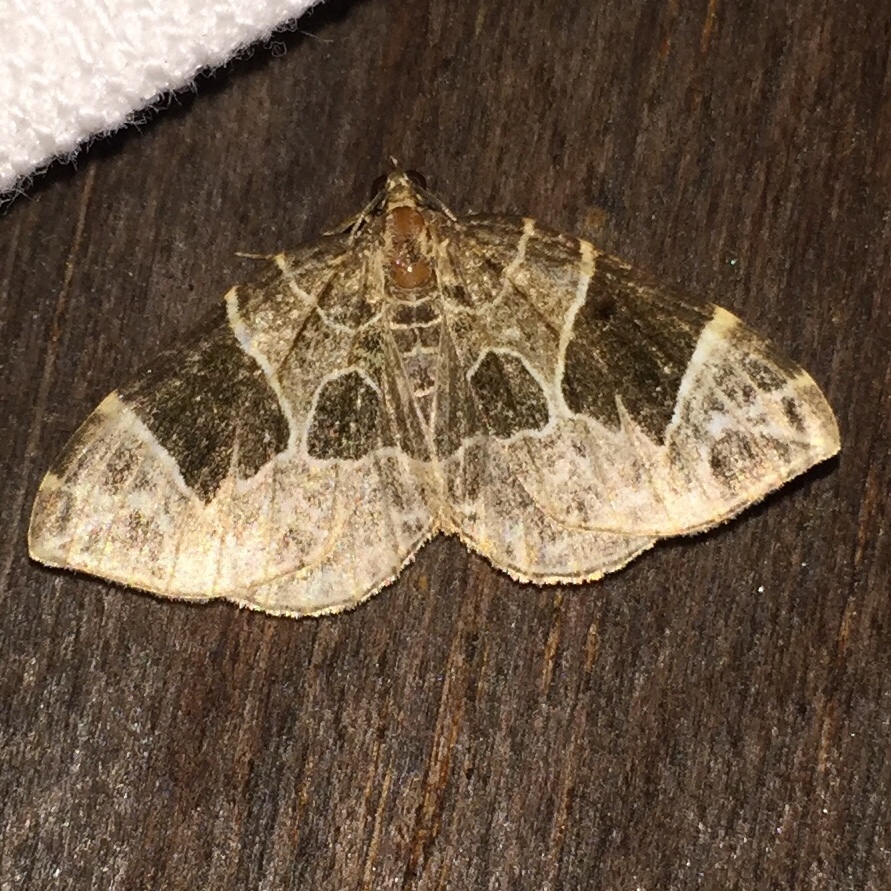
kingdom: Animalia
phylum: Arthropoda
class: Insecta
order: Lepidoptera
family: Geometridae
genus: Ecliptopera
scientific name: Ecliptopera atricolorata
